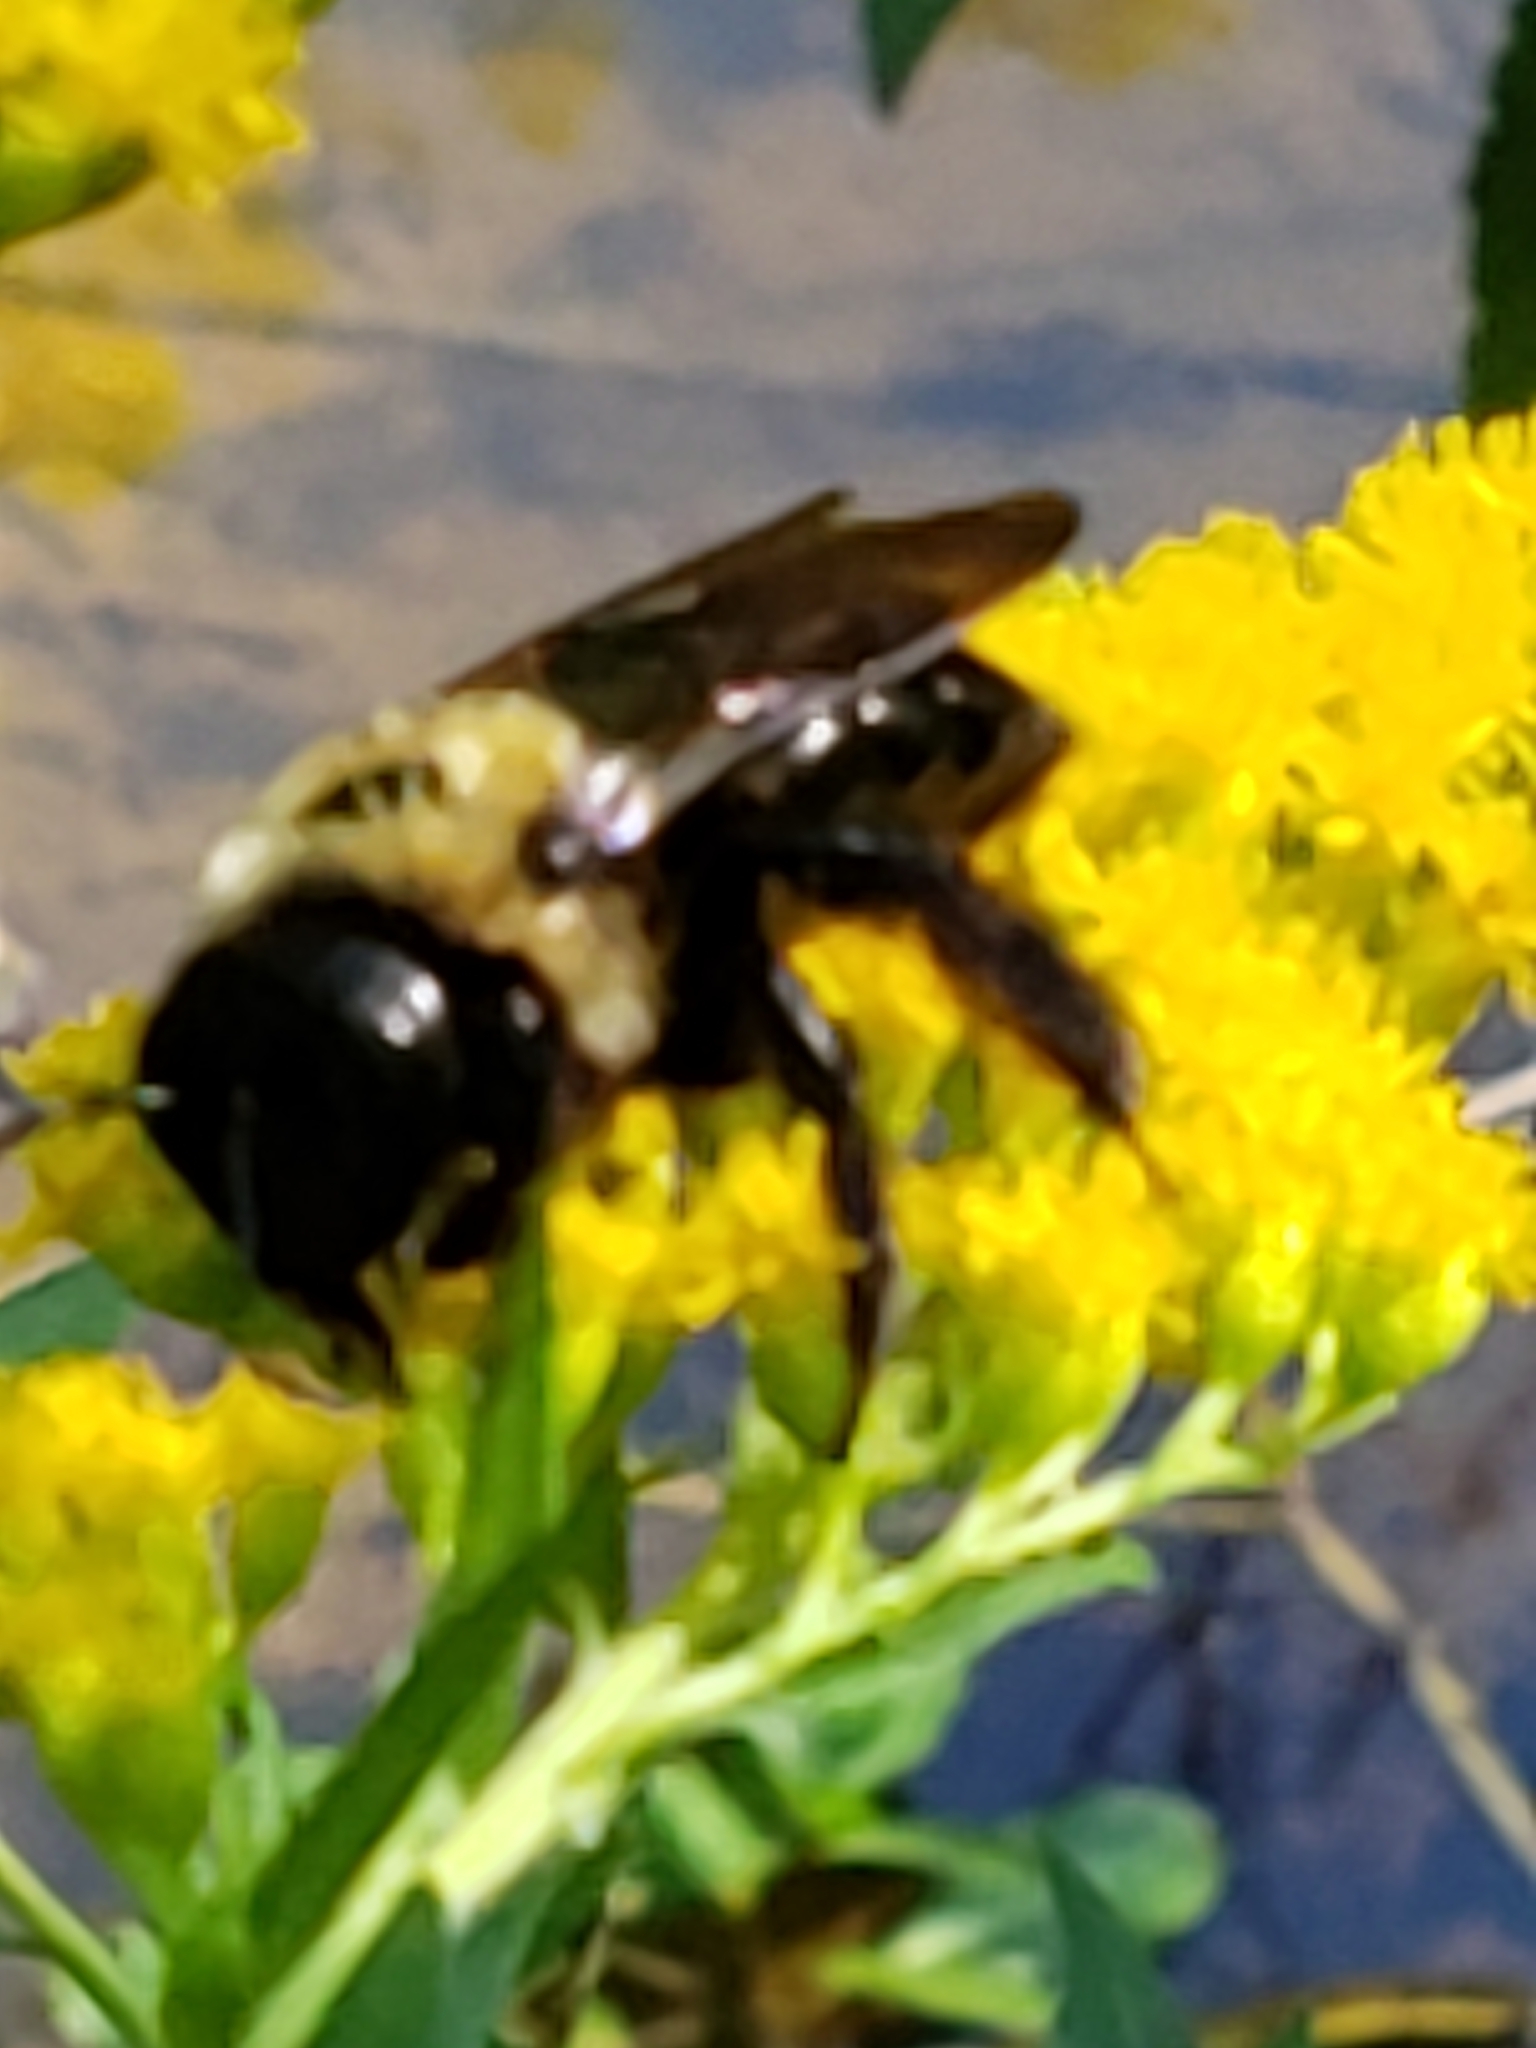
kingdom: Animalia
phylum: Arthropoda
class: Insecta
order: Hymenoptera
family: Apidae
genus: Xylocopa
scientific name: Xylocopa virginica
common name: Carpenter bee
